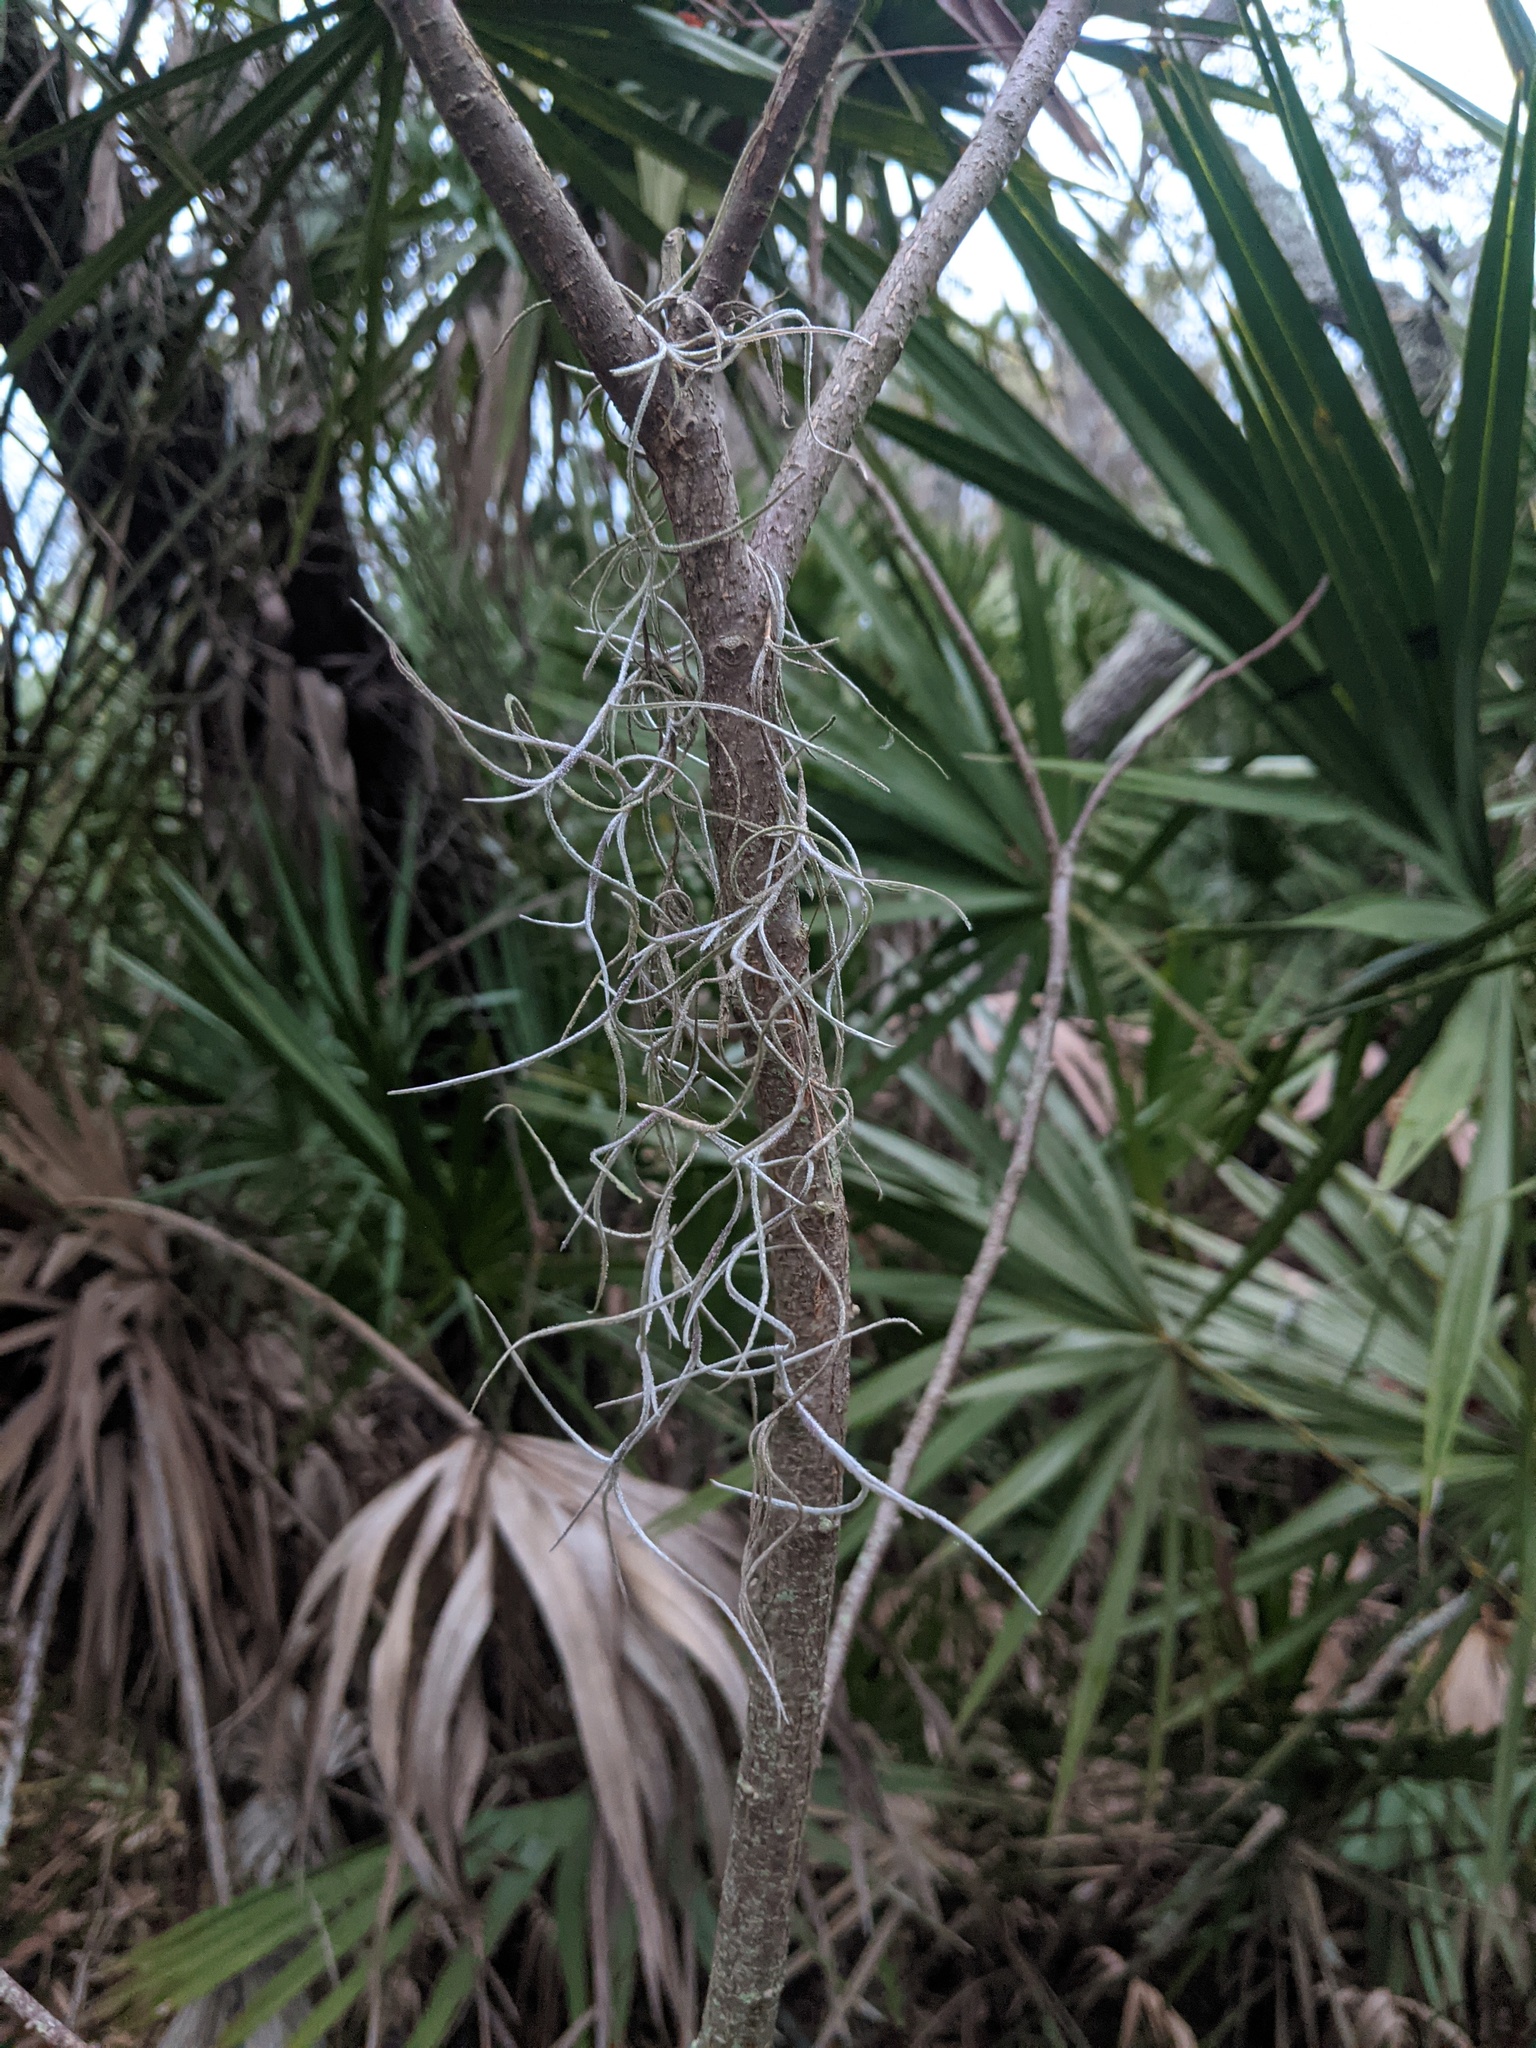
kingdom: Plantae
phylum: Tracheophyta
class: Liliopsida
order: Poales
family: Bromeliaceae
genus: Tillandsia
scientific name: Tillandsia usneoides
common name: Spanish moss
